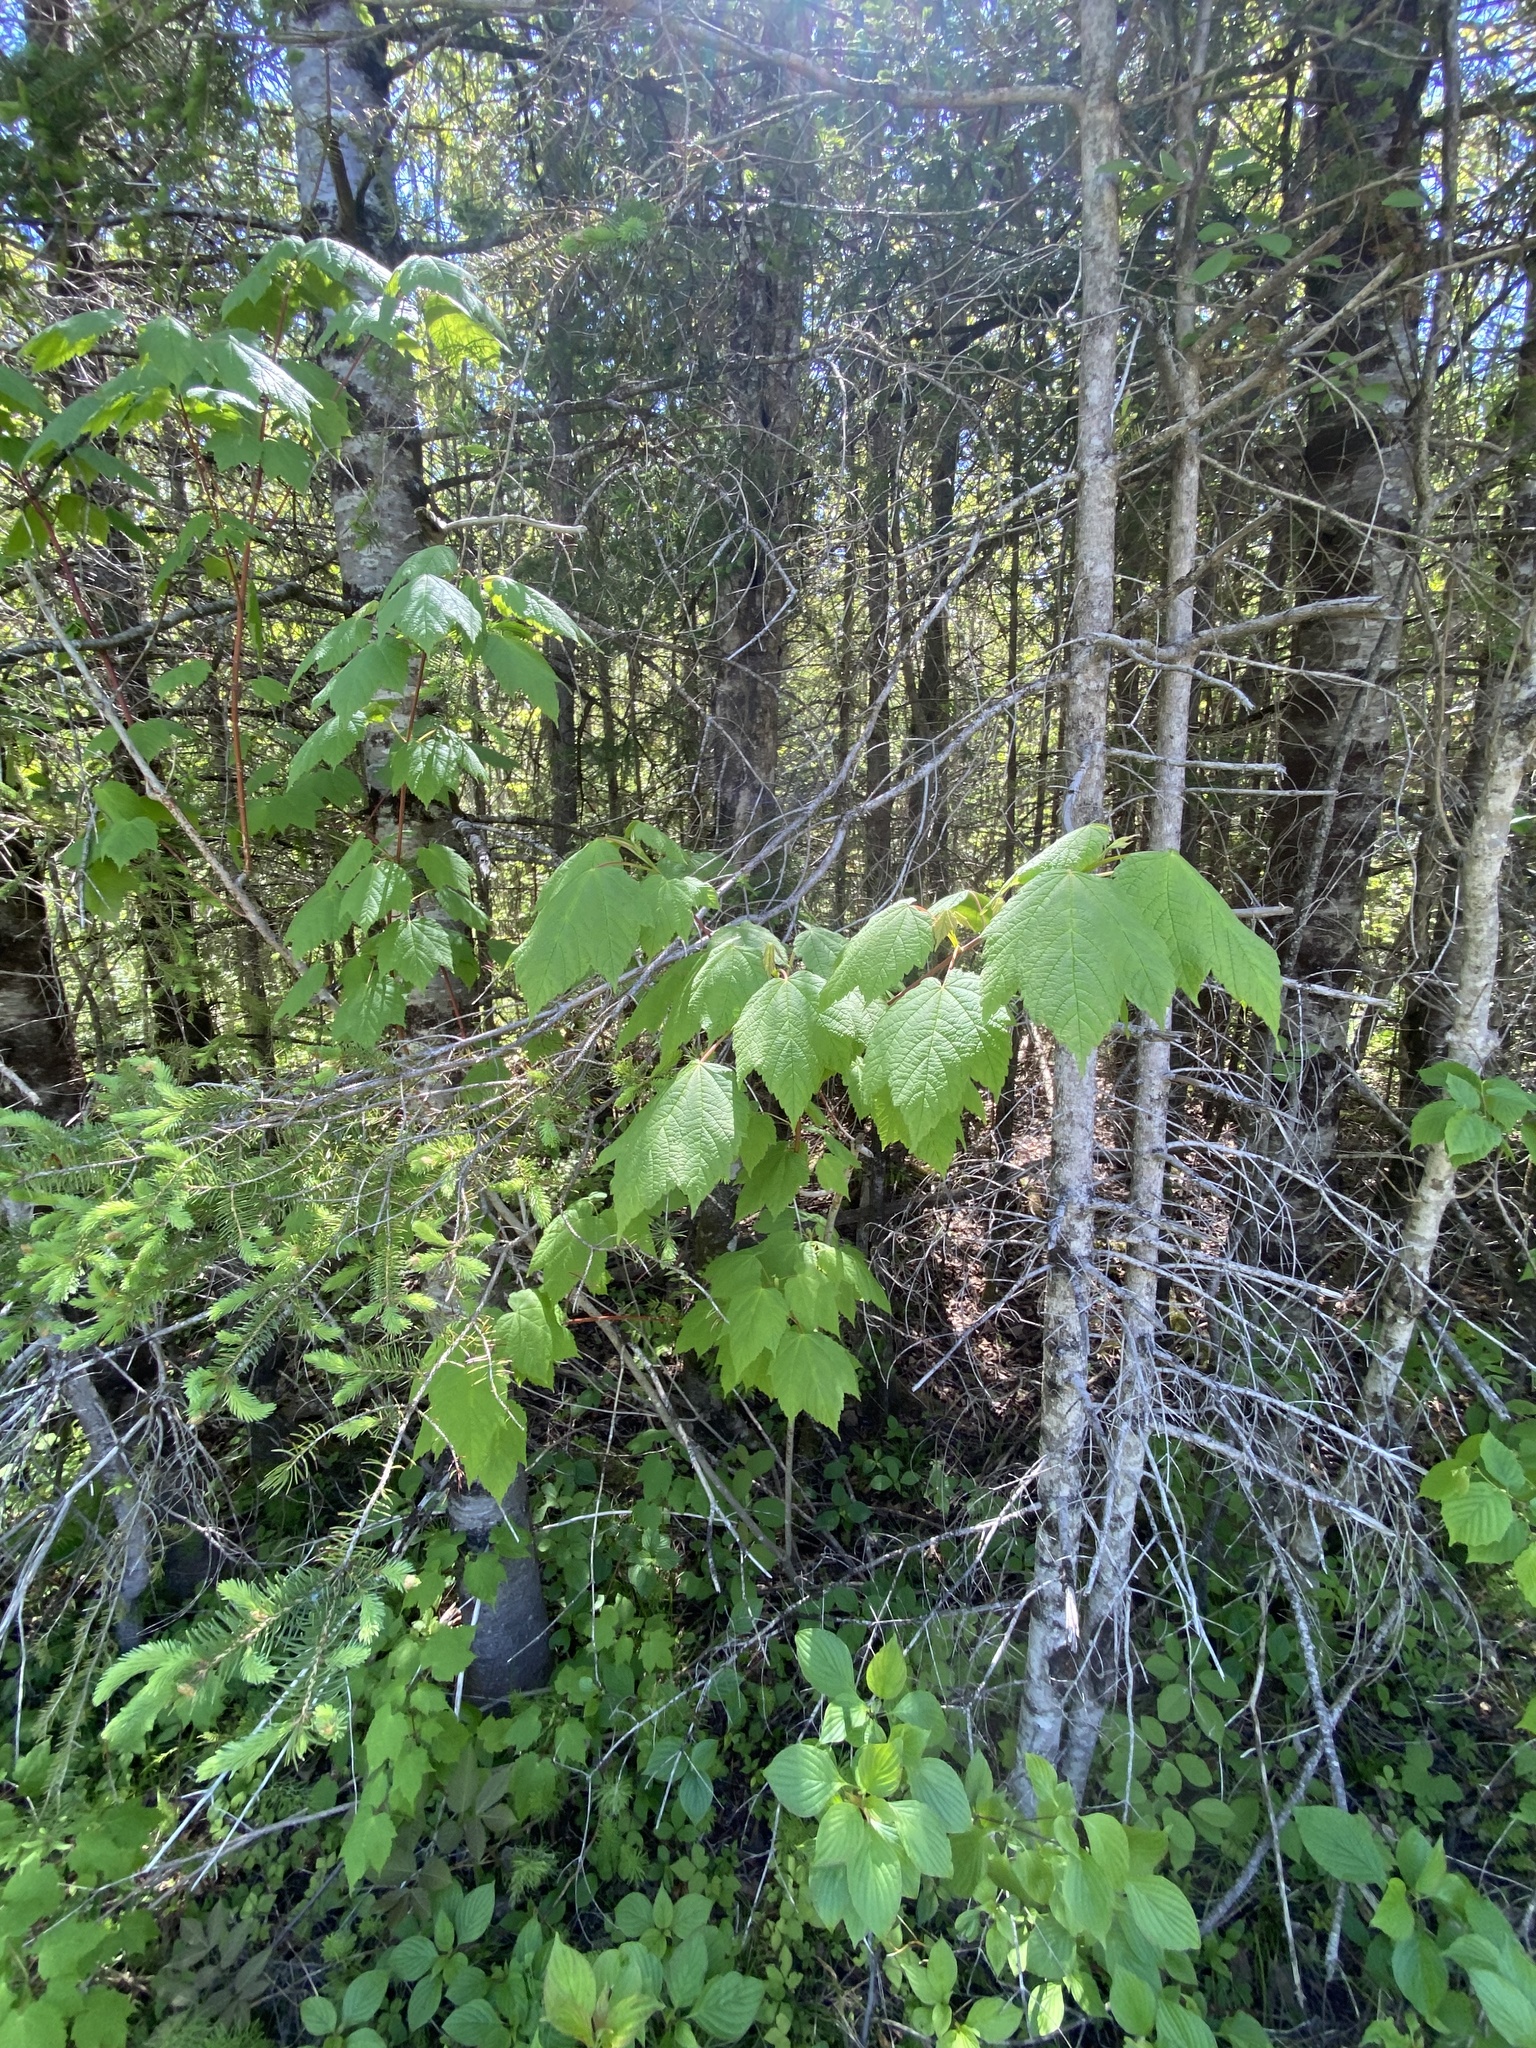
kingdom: Plantae
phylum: Tracheophyta
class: Magnoliopsida
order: Sapindales
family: Sapindaceae
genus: Acer
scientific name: Acer spicatum
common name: Mountain maple
